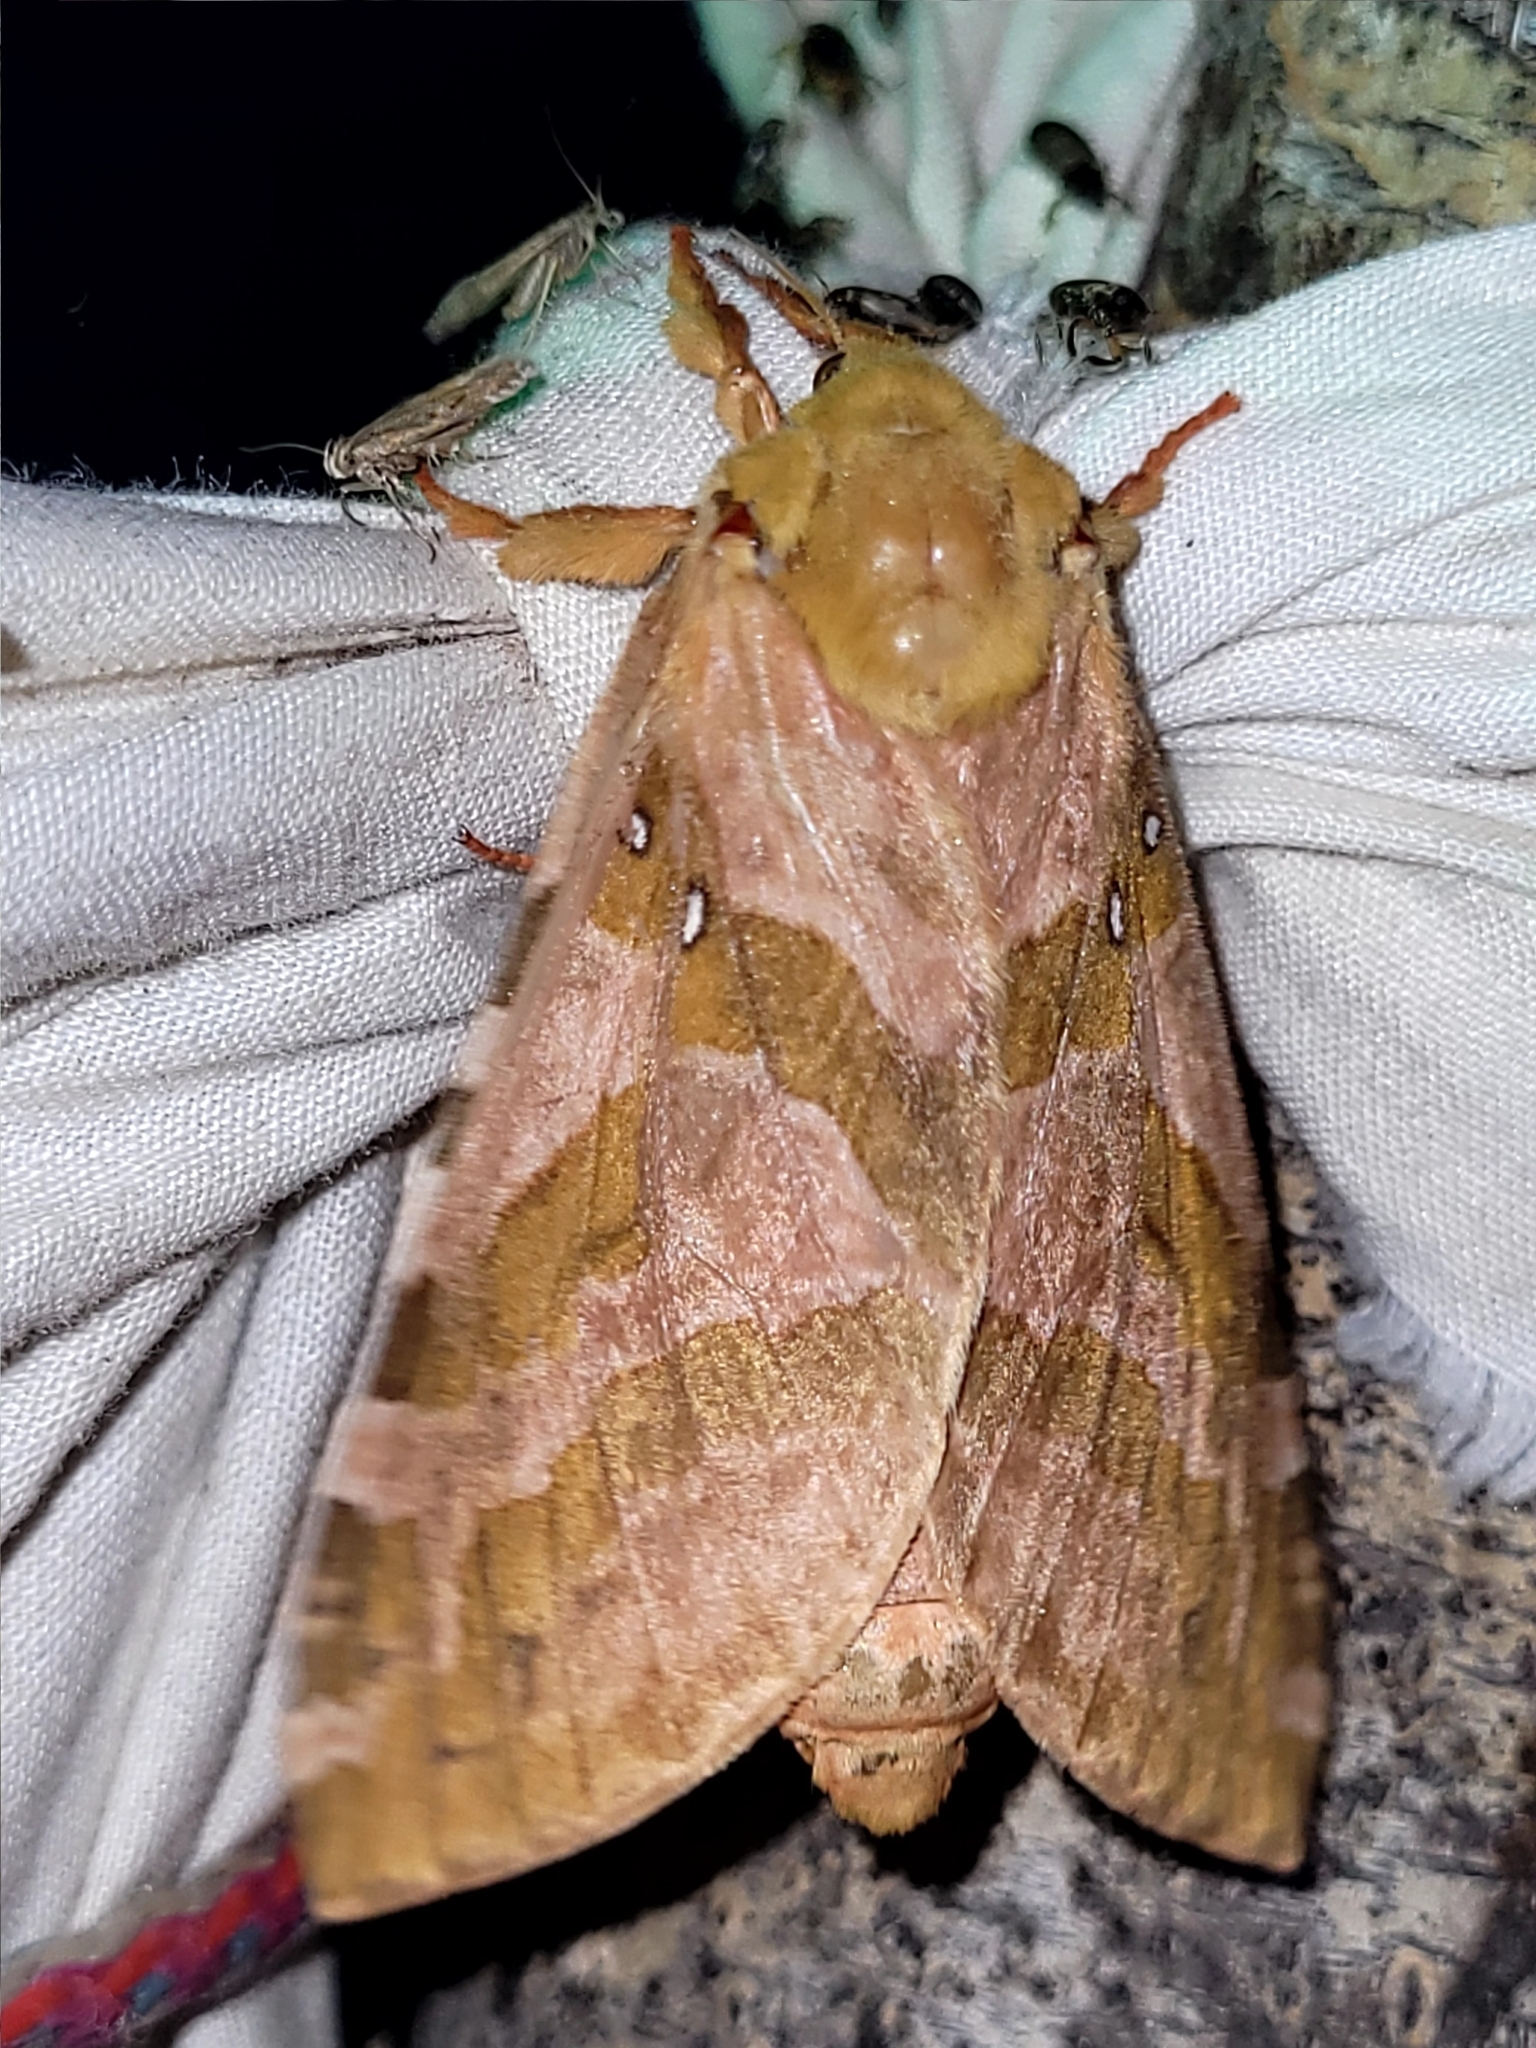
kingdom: Animalia
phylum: Arthropoda
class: Insecta
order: Lepidoptera
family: Hepialidae
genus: Sthenopis
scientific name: Sthenopis purpurascens
